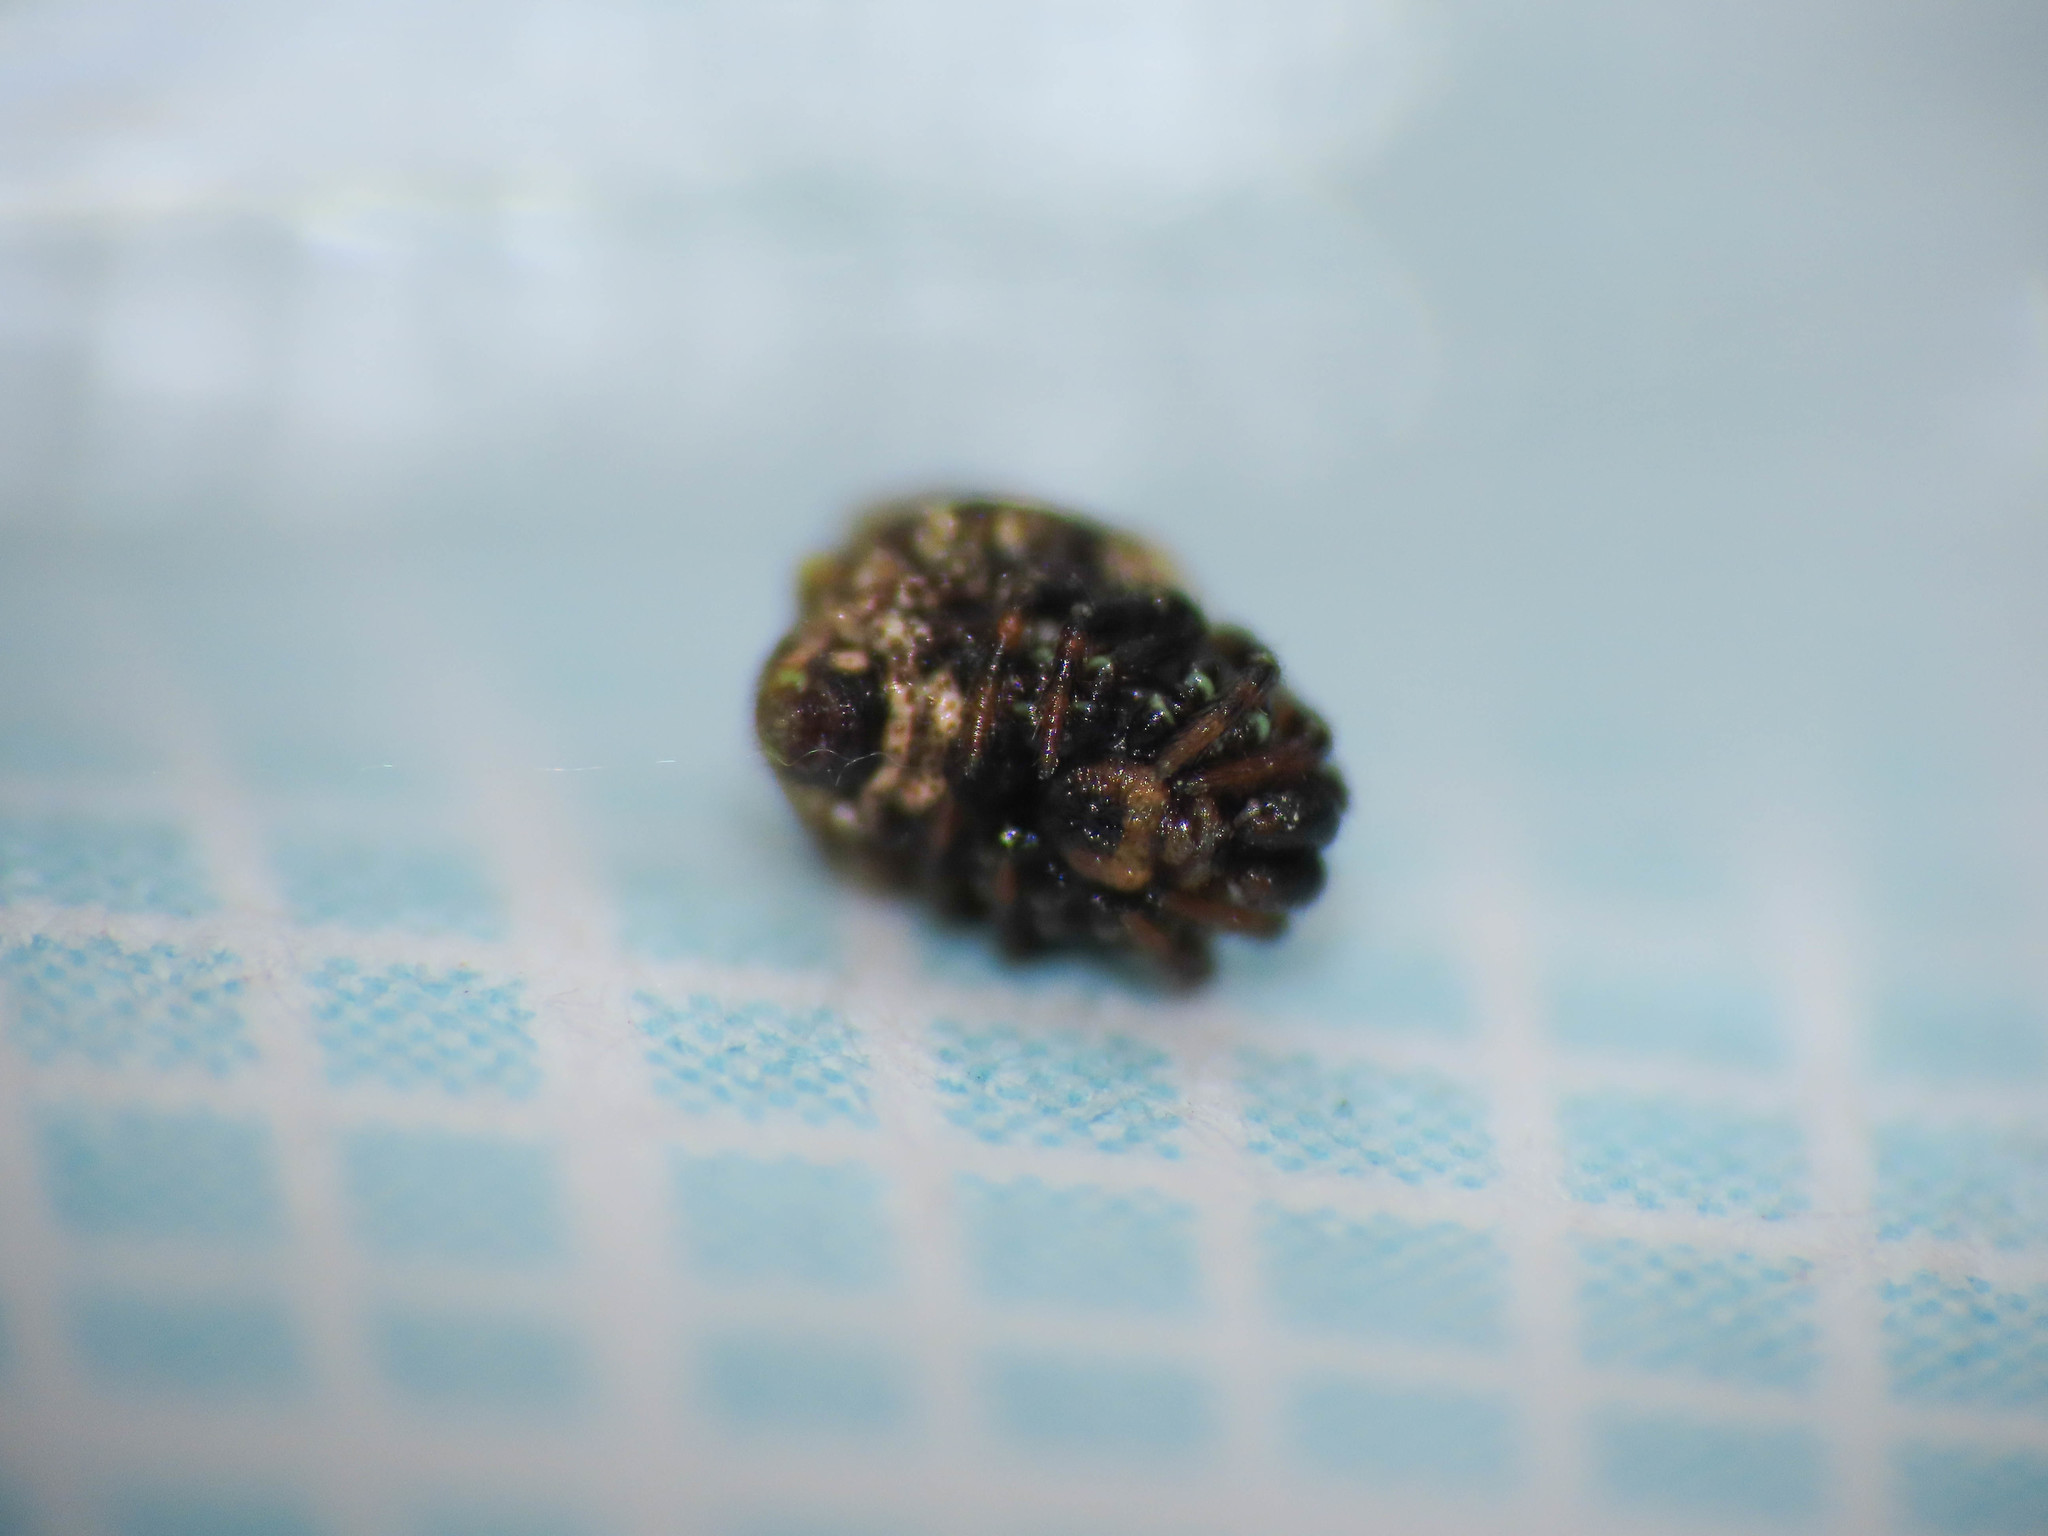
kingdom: Animalia
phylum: Arthropoda
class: Arachnida
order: Araneae
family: Theridiidae
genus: Phoroncidia
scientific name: Phoroncidia paradoxa
